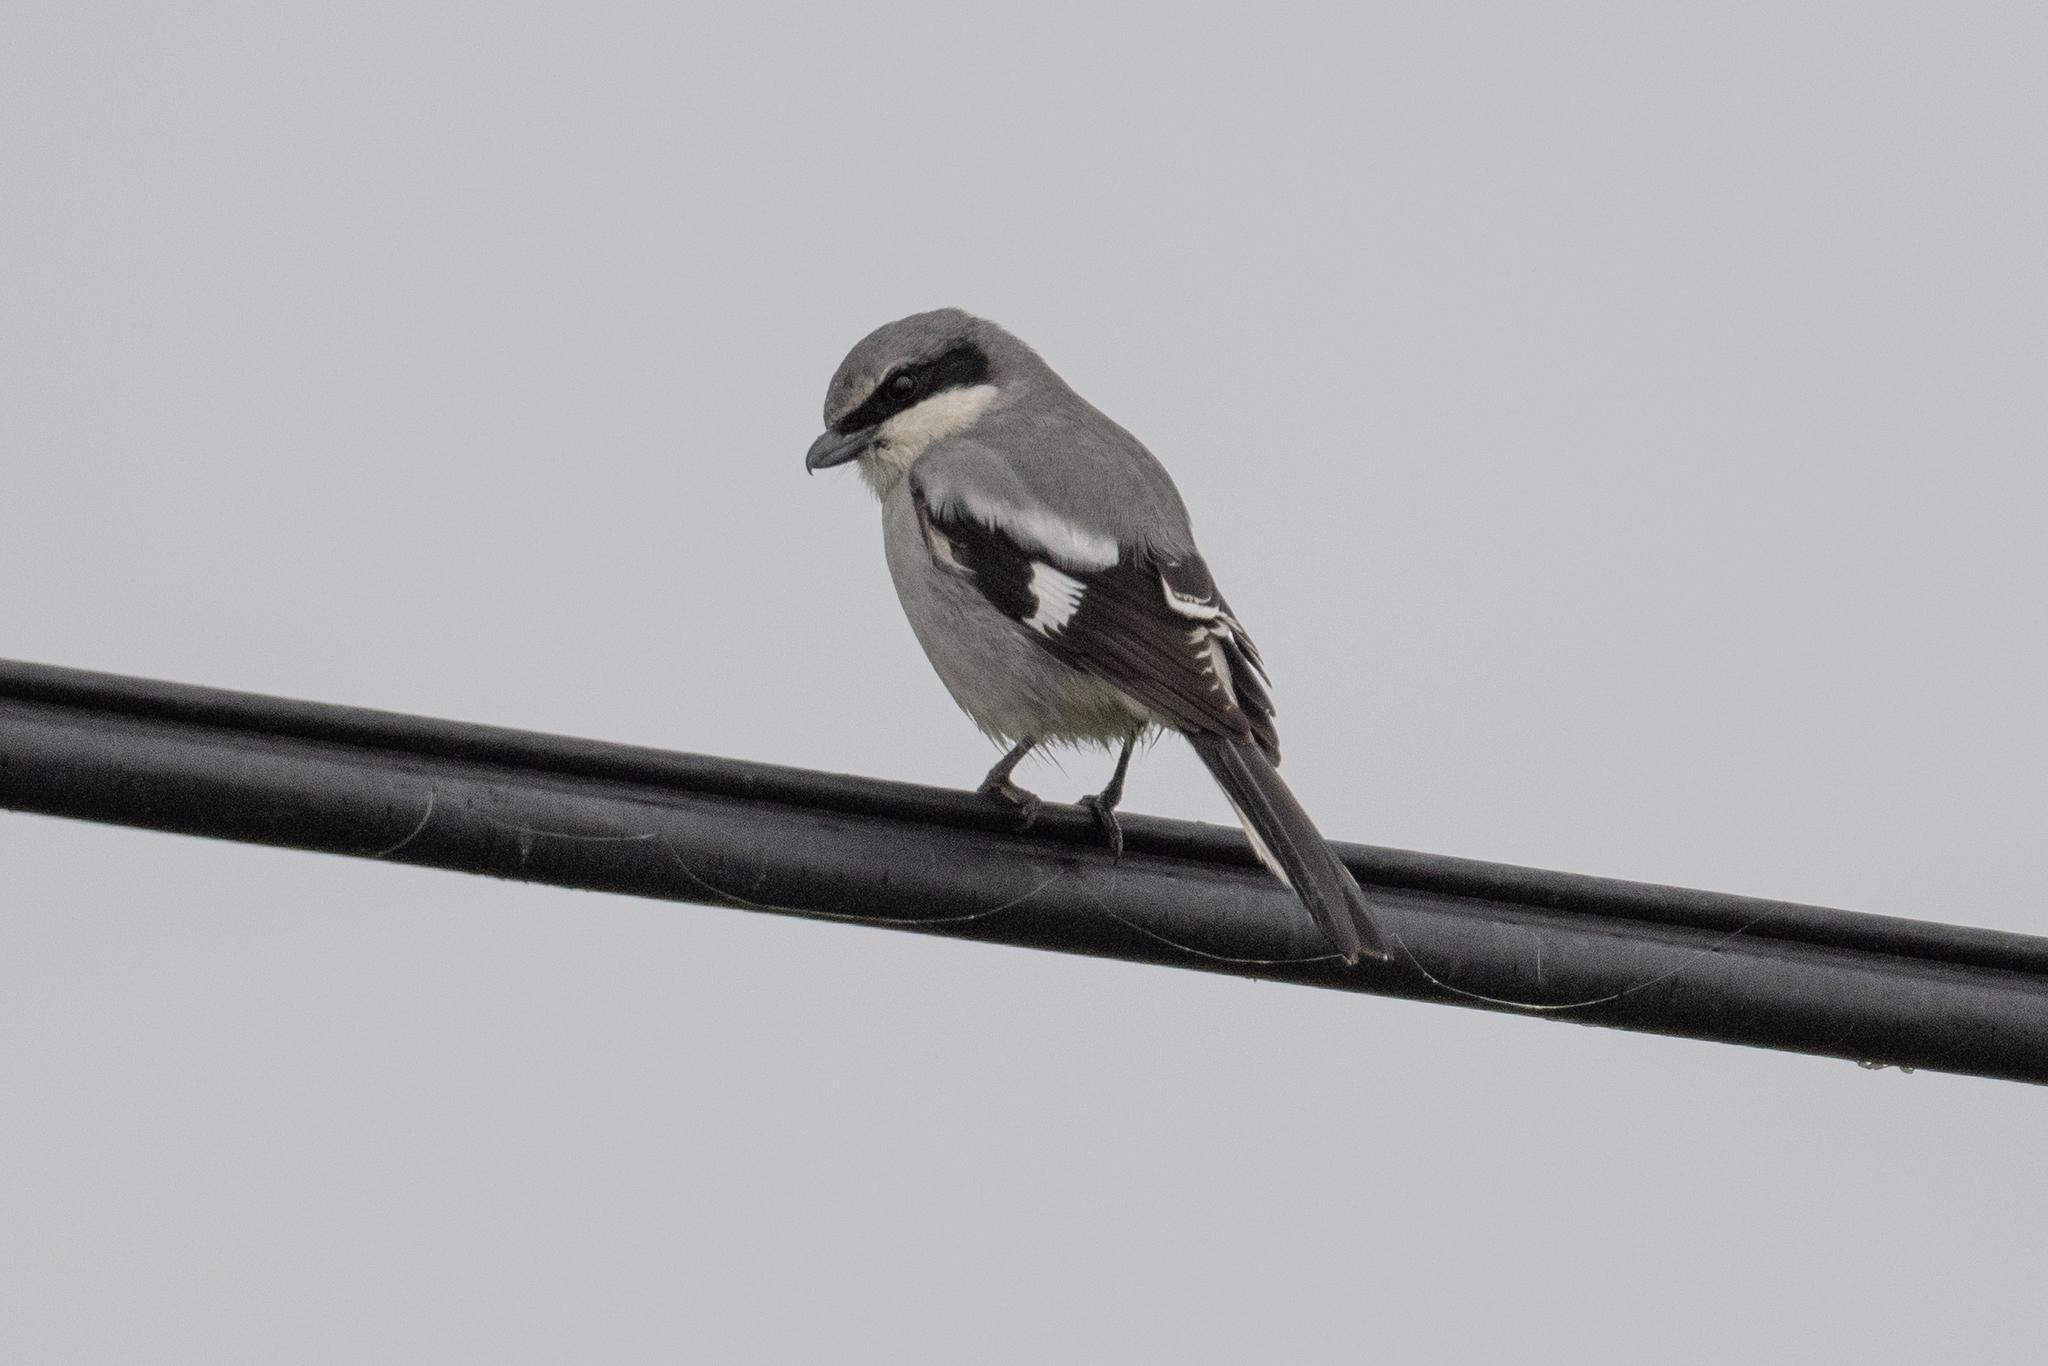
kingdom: Animalia
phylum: Chordata
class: Aves
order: Passeriformes
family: Laniidae
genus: Lanius
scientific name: Lanius ludovicianus
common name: Loggerhead shrike
